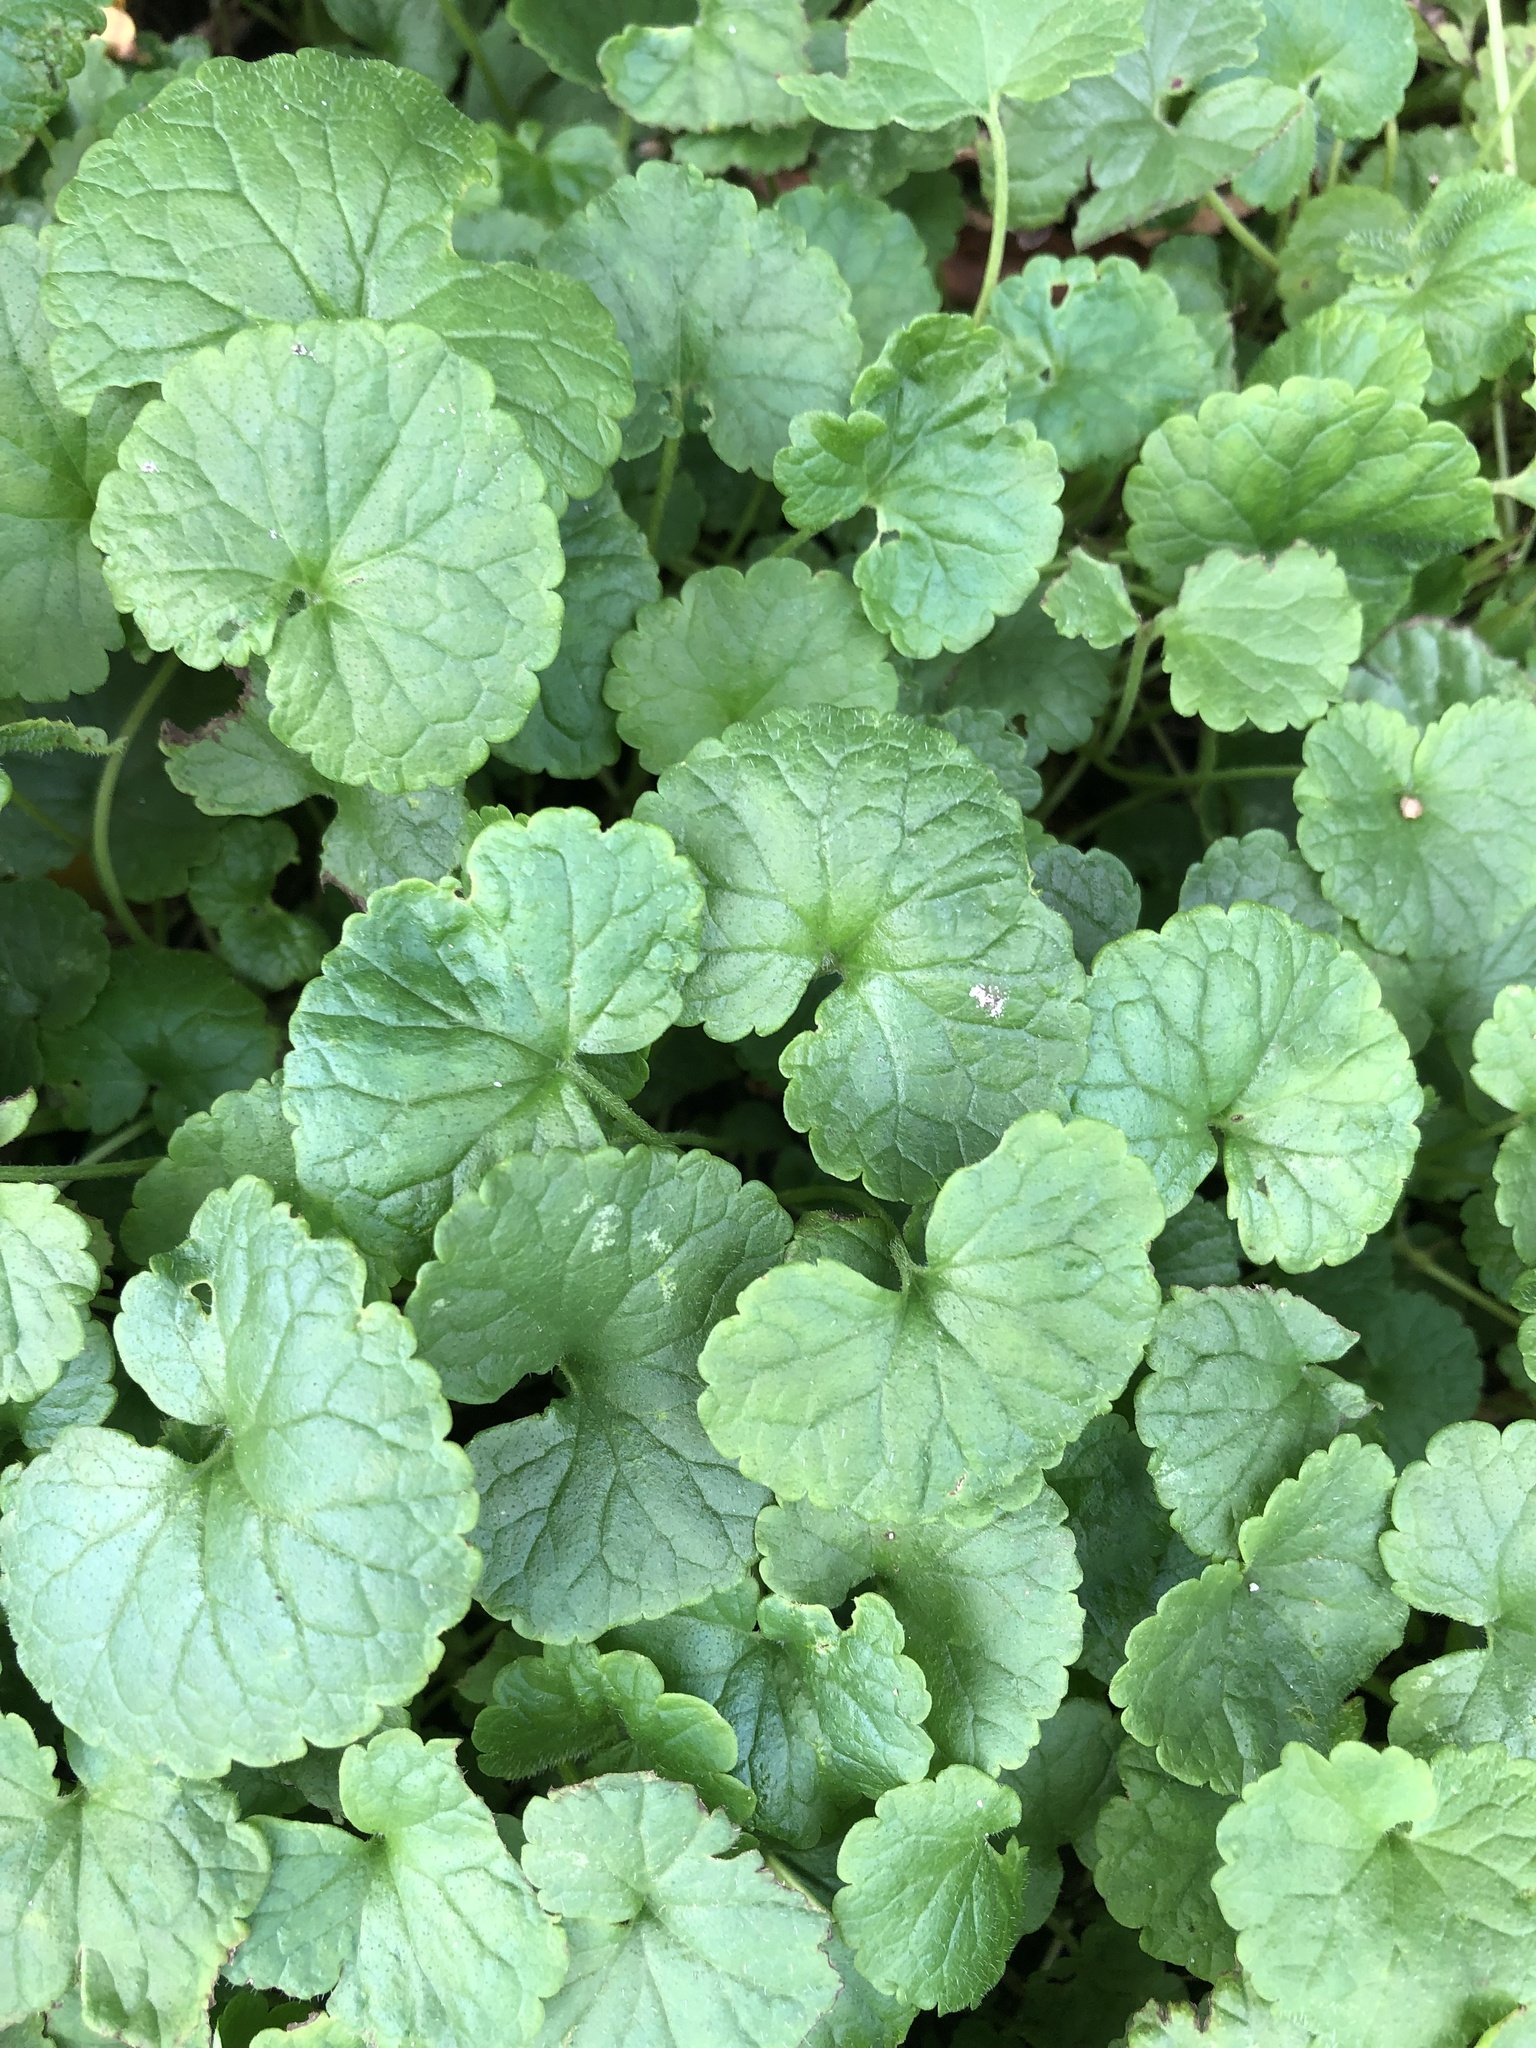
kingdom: Plantae
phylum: Tracheophyta
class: Magnoliopsida
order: Lamiales
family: Lamiaceae
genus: Glechoma
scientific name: Glechoma hederacea
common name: Ground ivy
